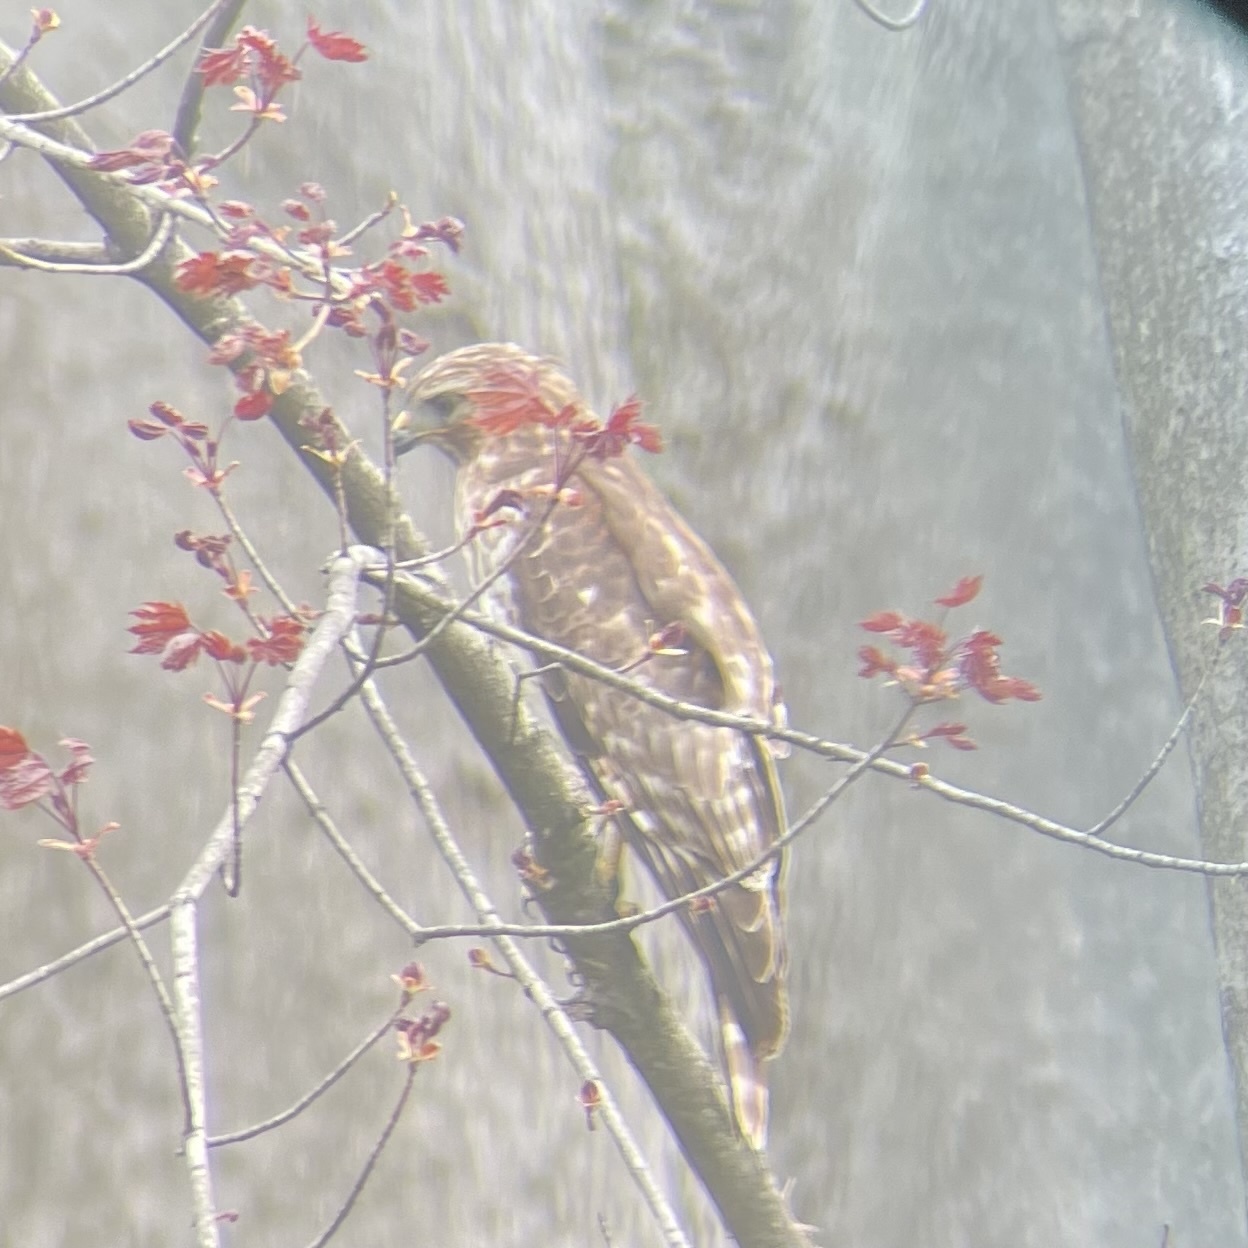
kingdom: Animalia
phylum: Chordata
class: Aves
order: Accipitriformes
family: Accipitridae
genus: Buteo
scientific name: Buteo lineatus
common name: Red-shouldered hawk
